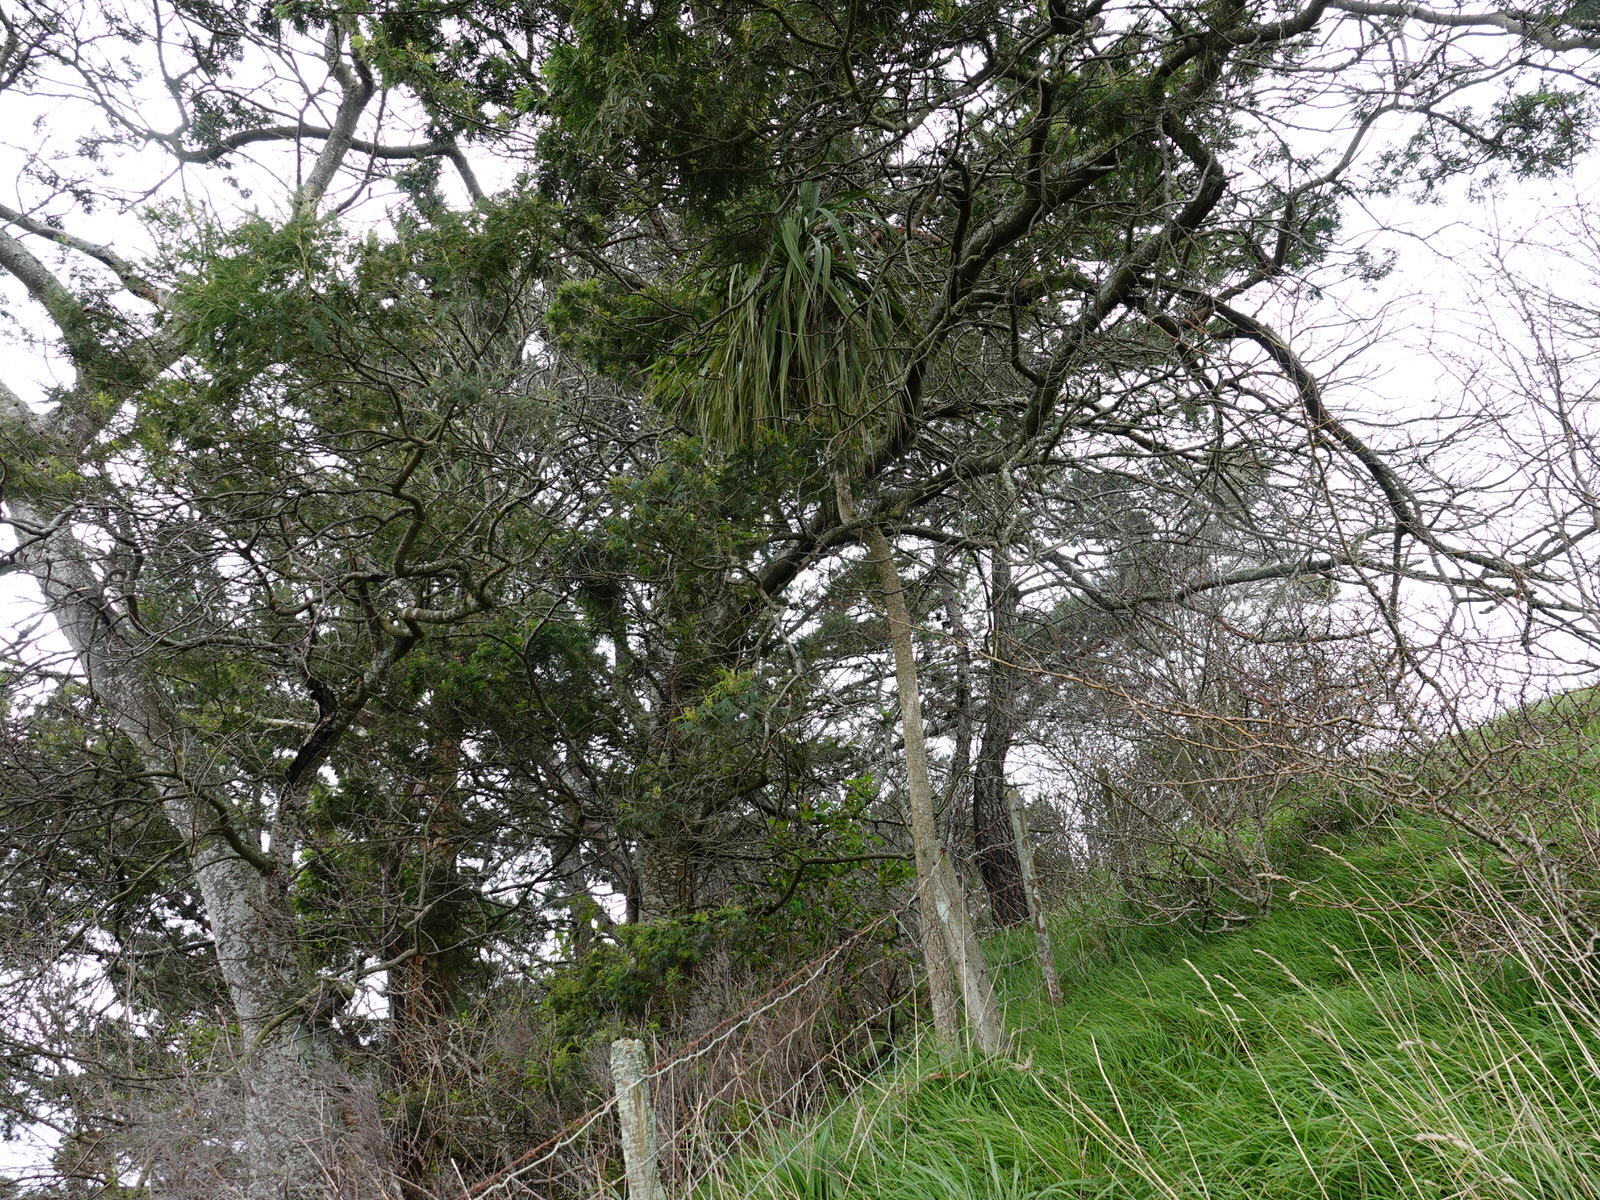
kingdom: Plantae
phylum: Tracheophyta
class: Liliopsida
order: Asparagales
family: Asparagaceae
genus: Cordyline
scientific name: Cordyline australis
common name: Cabbage-palm
